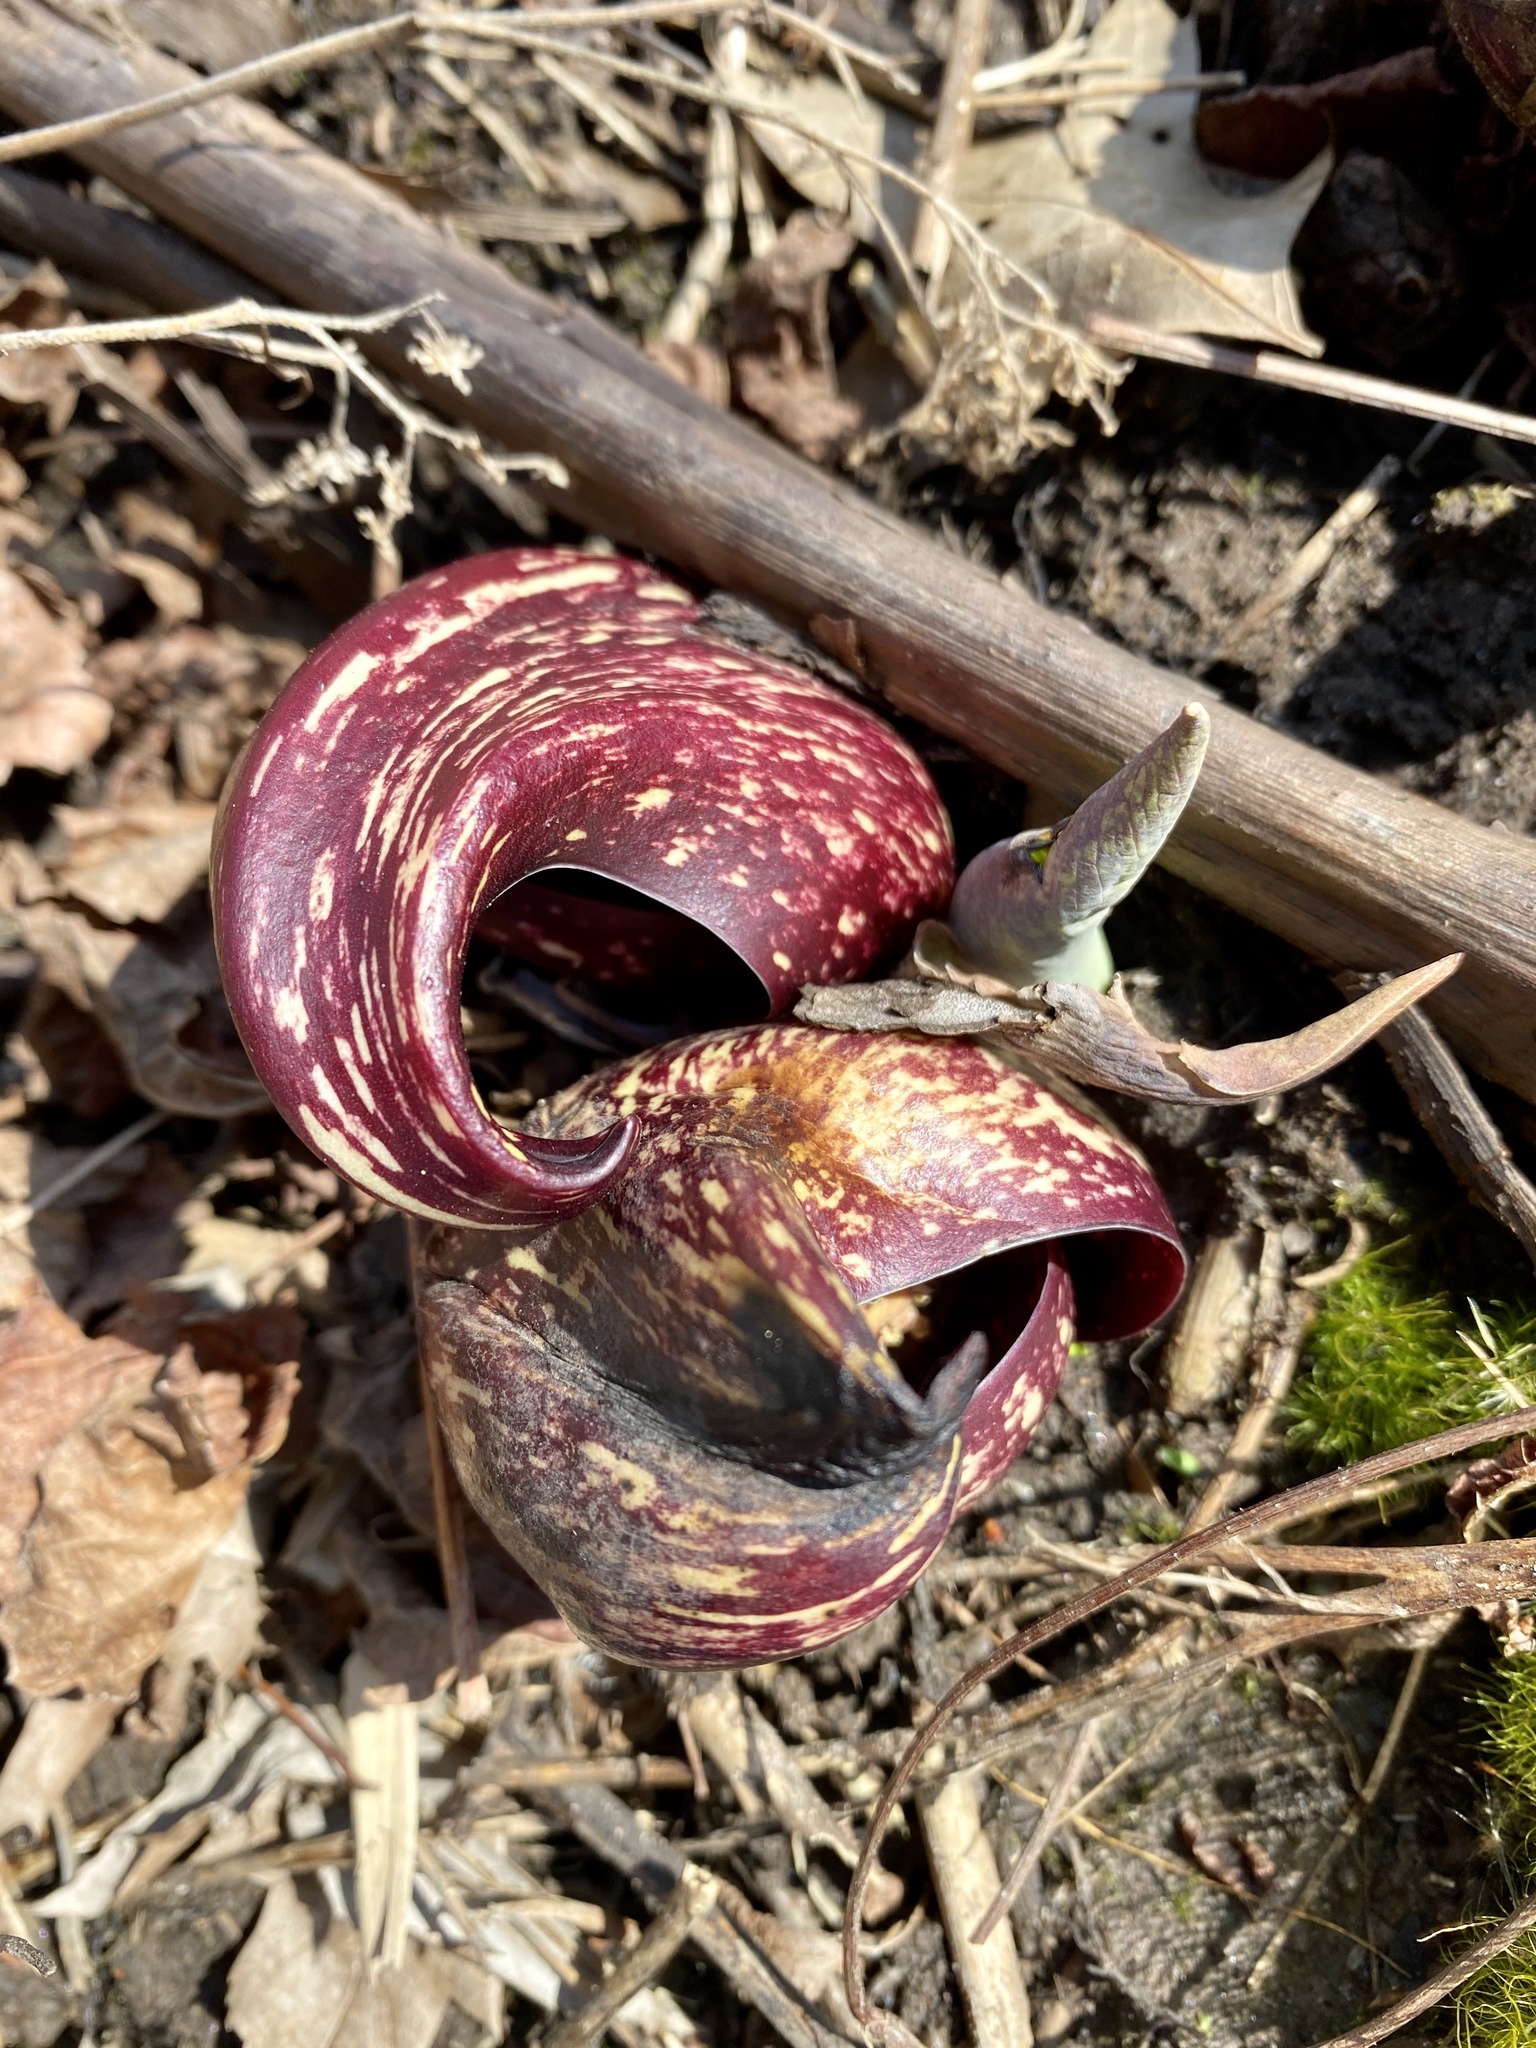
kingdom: Plantae
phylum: Tracheophyta
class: Liliopsida
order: Alismatales
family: Araceae
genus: Symplocarpus
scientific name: Symplocarpus foetidus
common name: Eastern skunk cabbage
